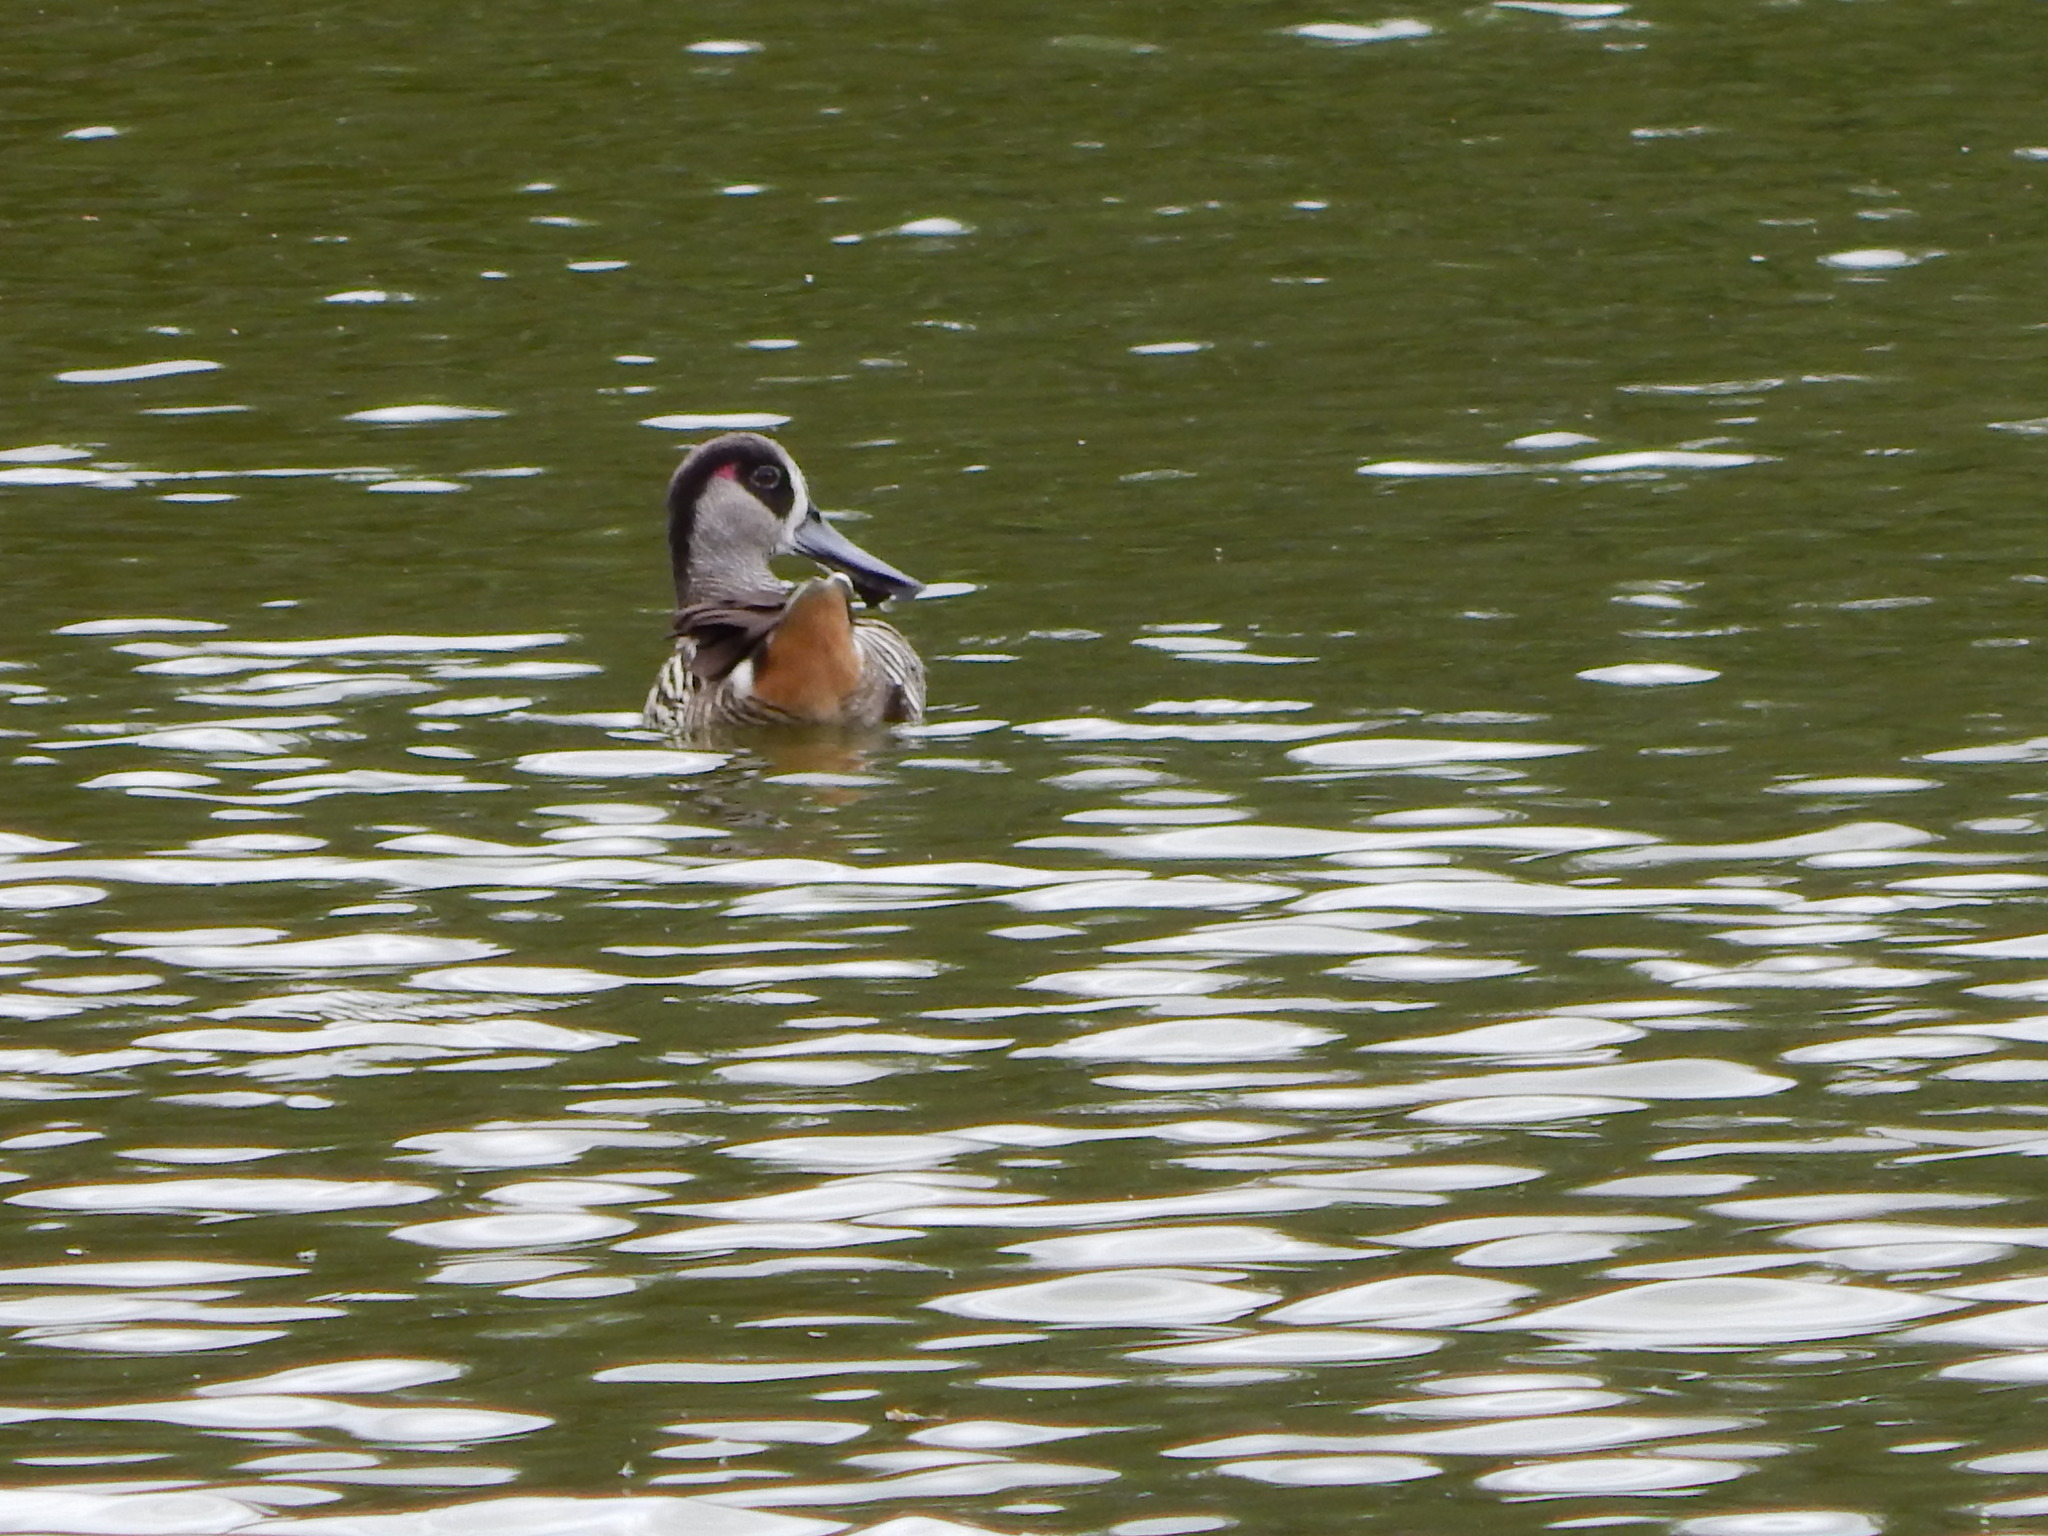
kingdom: Animalia
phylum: Chordata
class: Aves
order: Anseriformes
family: Anatidae
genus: Malacorhynchus
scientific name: Malacorhynchus membranaceus
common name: Pink-eared duck
